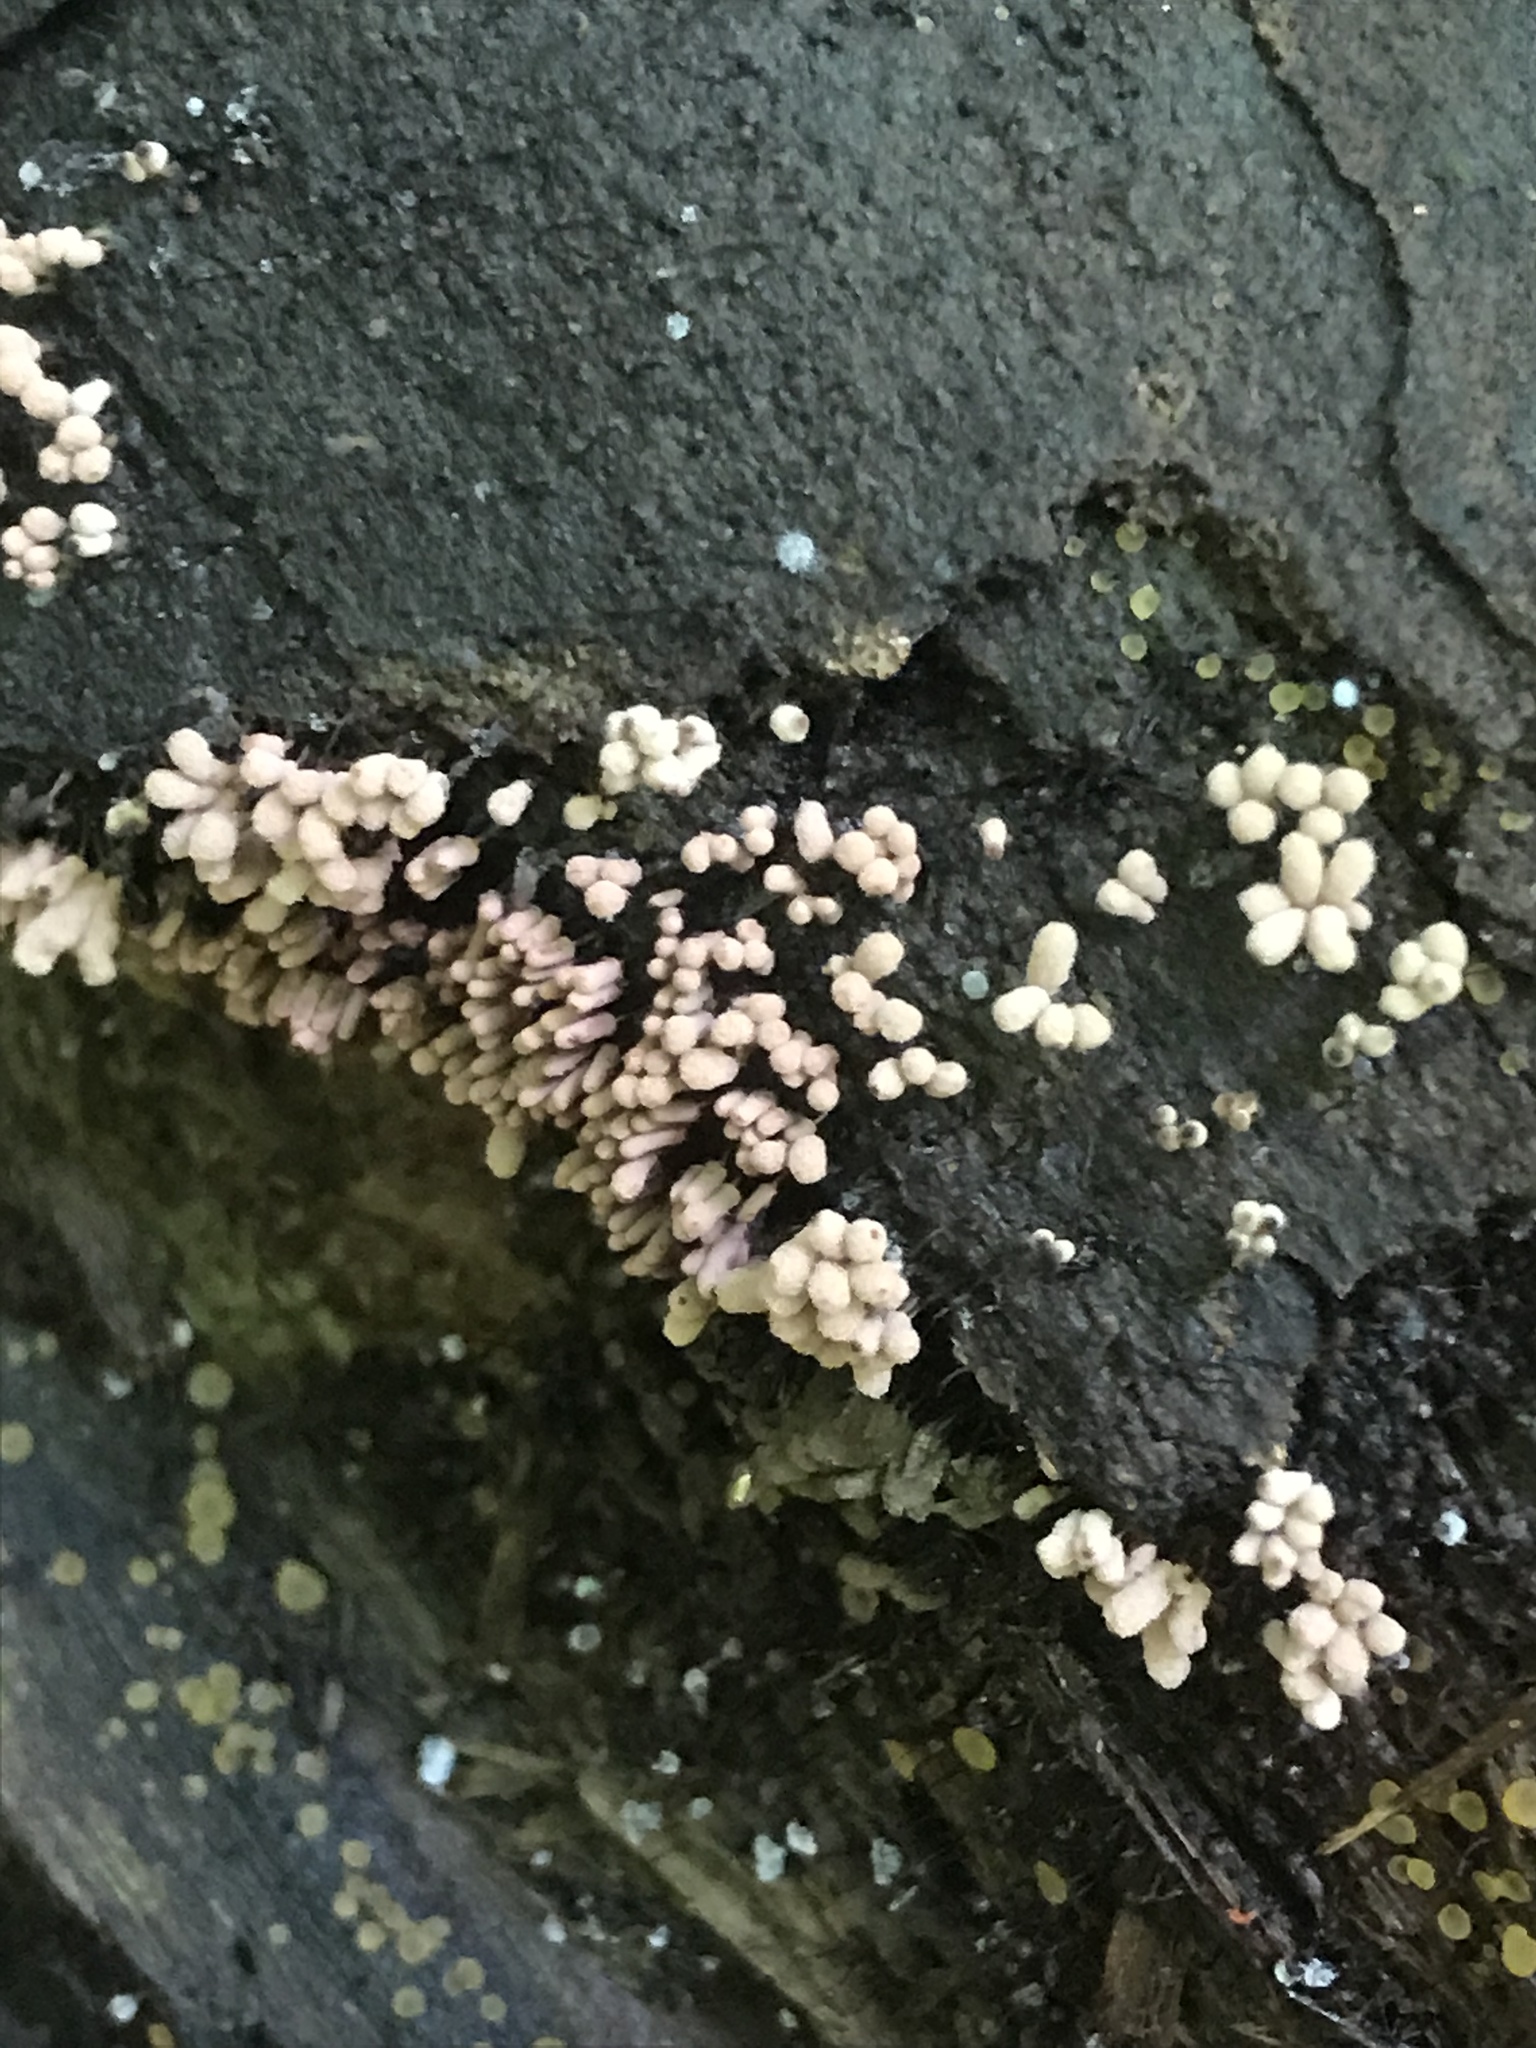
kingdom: Protozoa
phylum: Mycetozoa
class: Myxomycetes
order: Trichiales
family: Arcyriaceae
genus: Arcyria
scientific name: Arcyria cinerea
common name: White carnival candy slime mold
